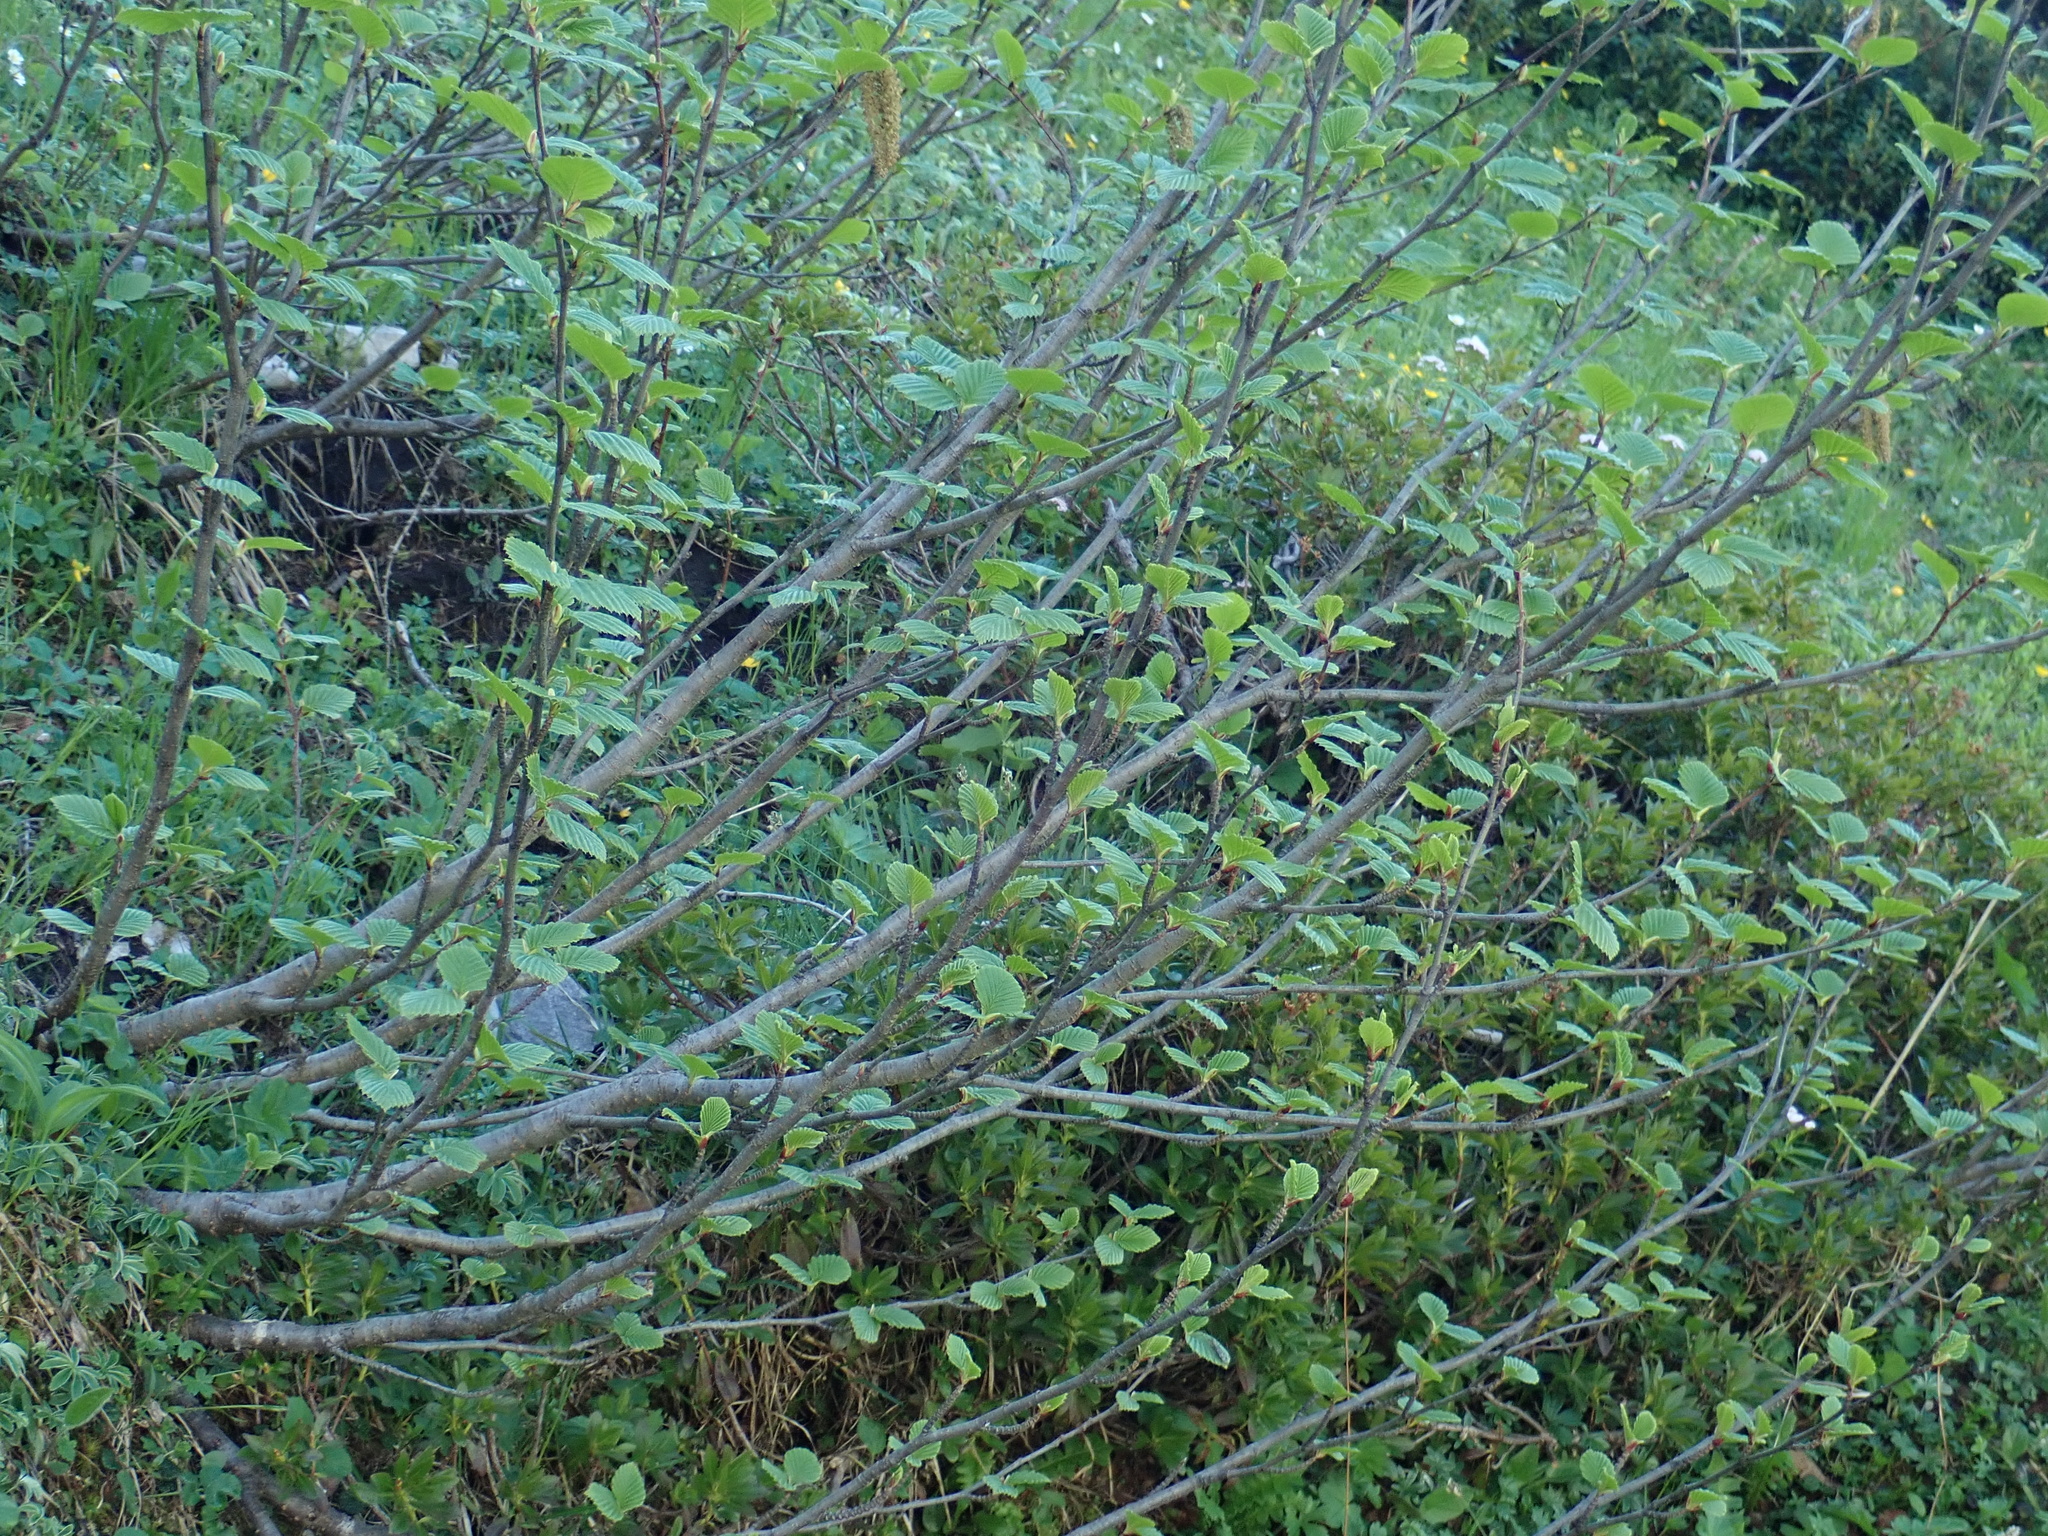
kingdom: Plantae
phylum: Tracheophyta
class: Magnoliopsida
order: Fagales
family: Betulaceae
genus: Alnus
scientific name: Alnus alnobetula
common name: Green alder
